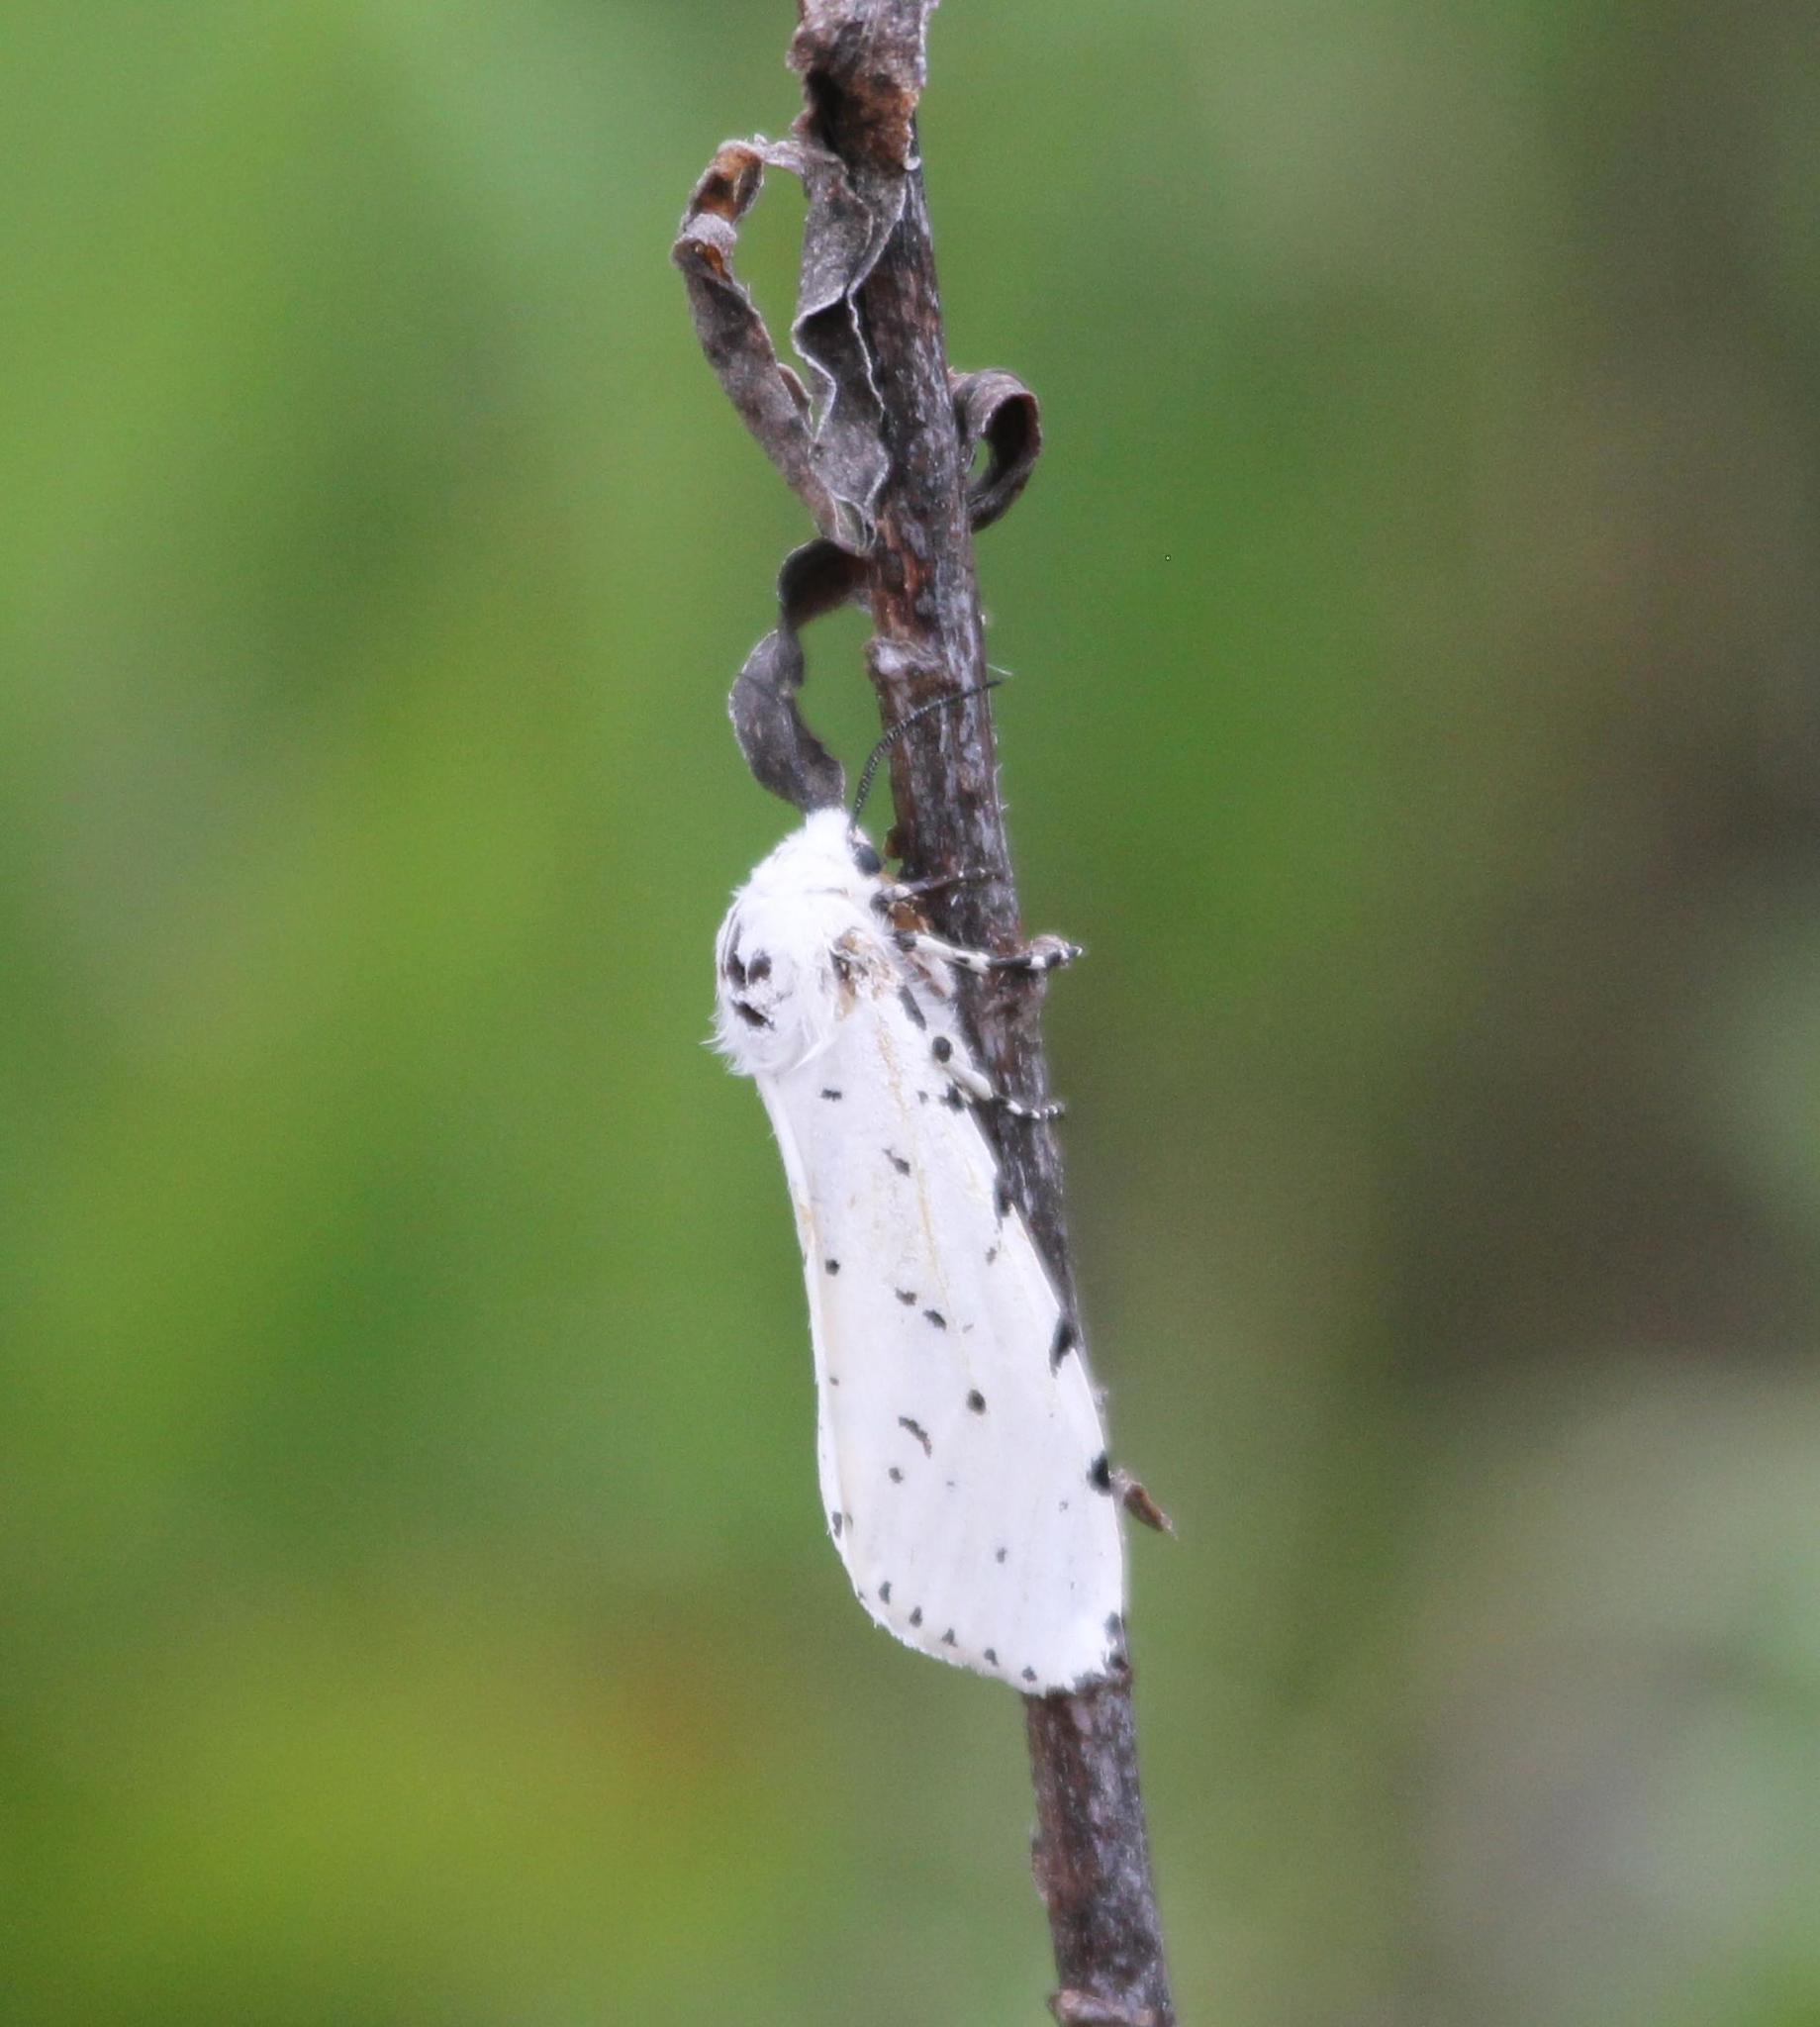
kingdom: Animalia
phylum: Arthropoda
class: Insecta
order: Lepidoptera
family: Erebidae
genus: Estigmene
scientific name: Estigmene acrea
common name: Salt marsh moth
